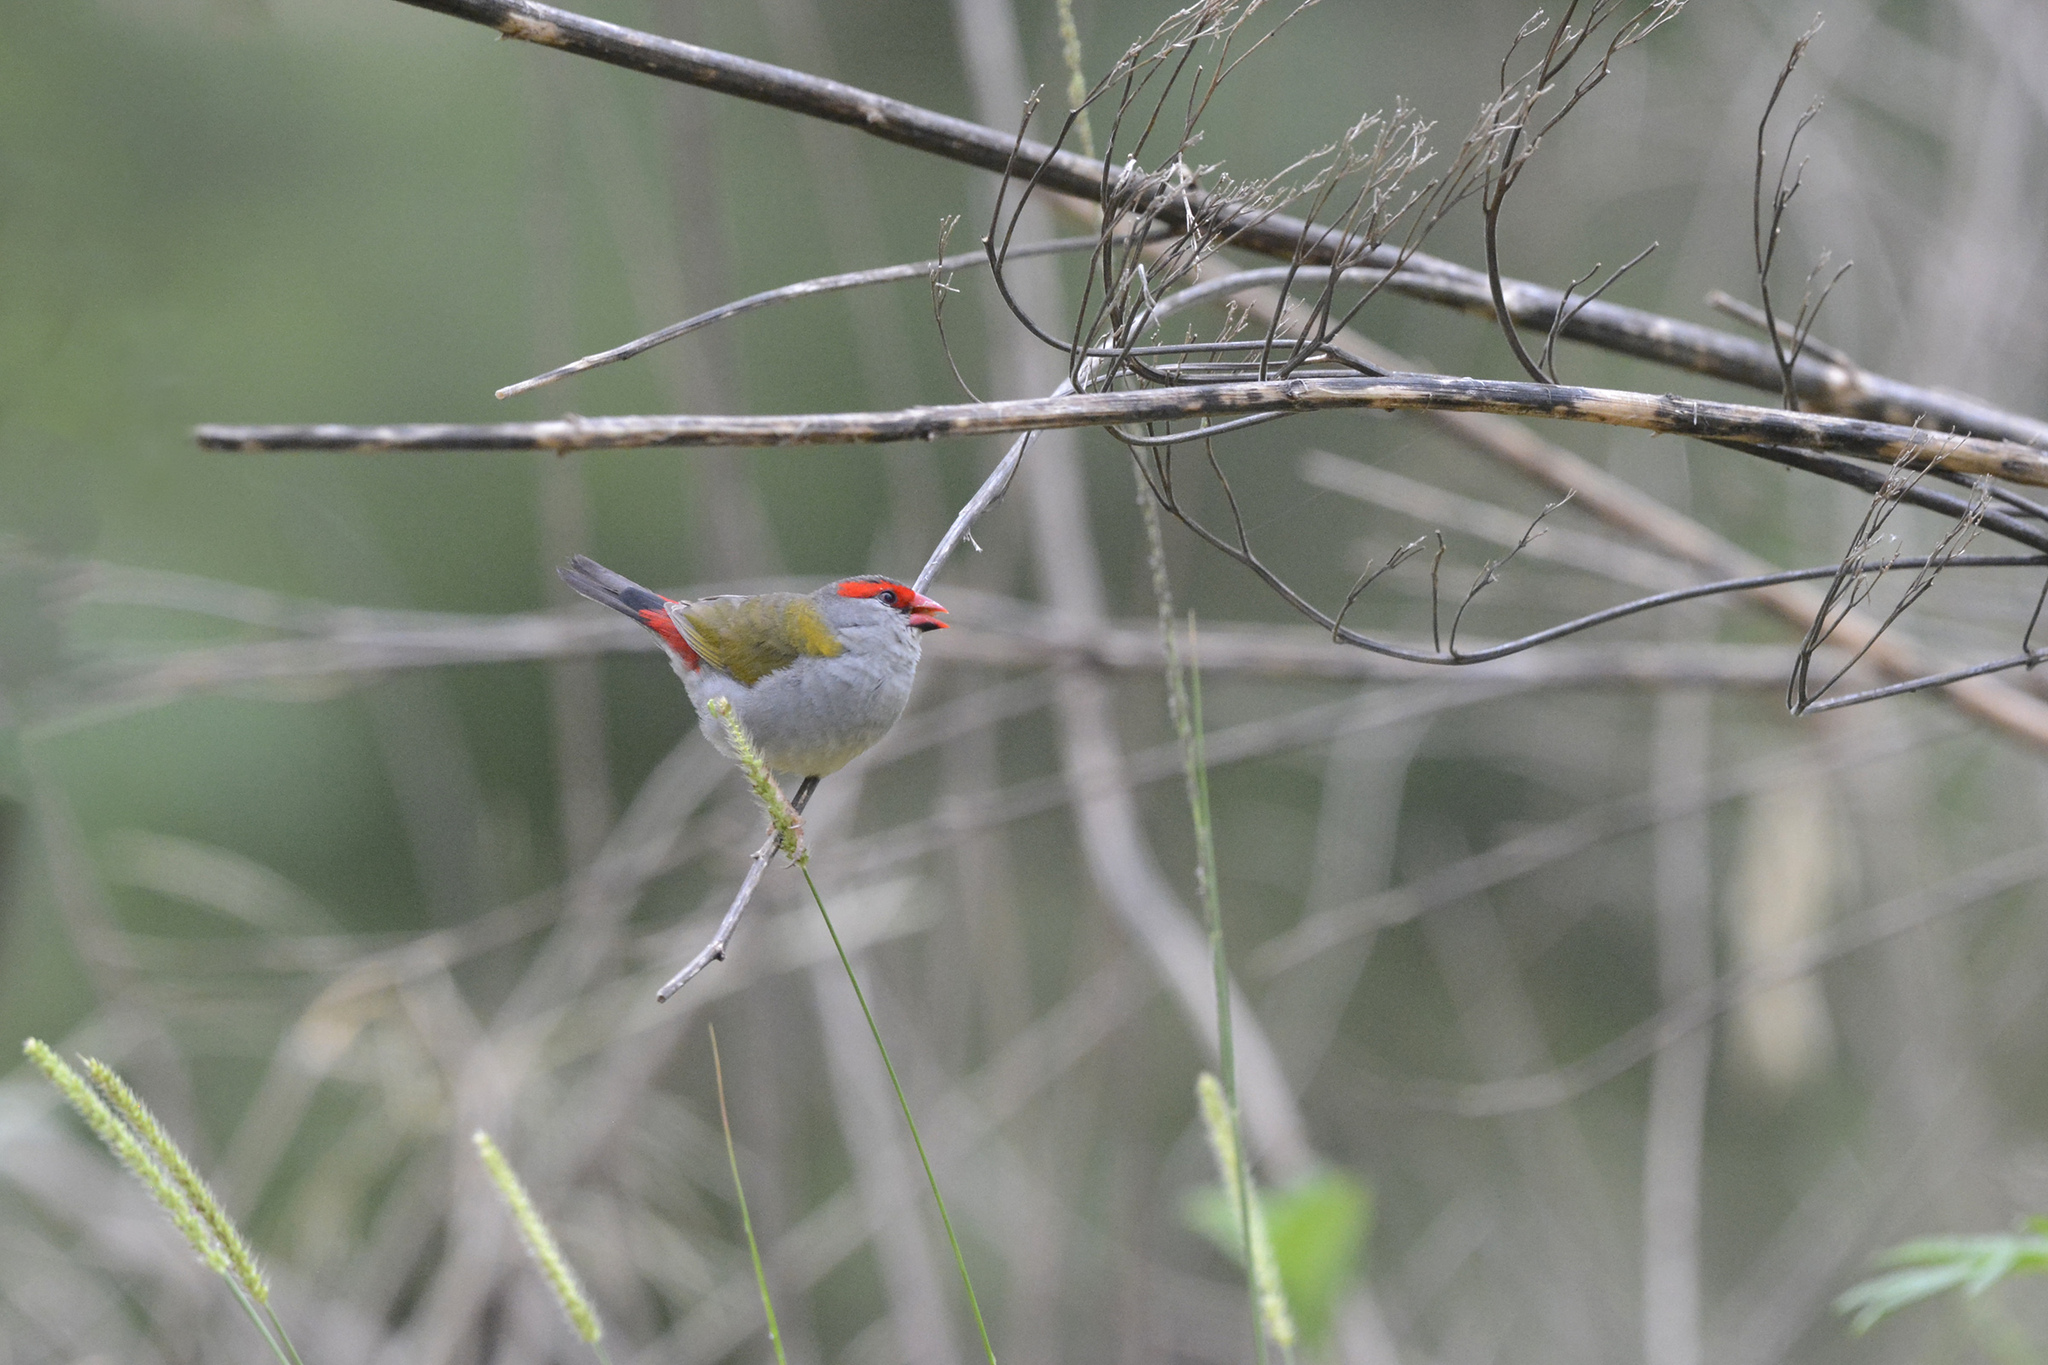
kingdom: Animalia
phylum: Chordata
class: Aves
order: Passeriformes
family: Estrildidae
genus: Neochmia
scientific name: Neochmia temporalis
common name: Red-browed finch
